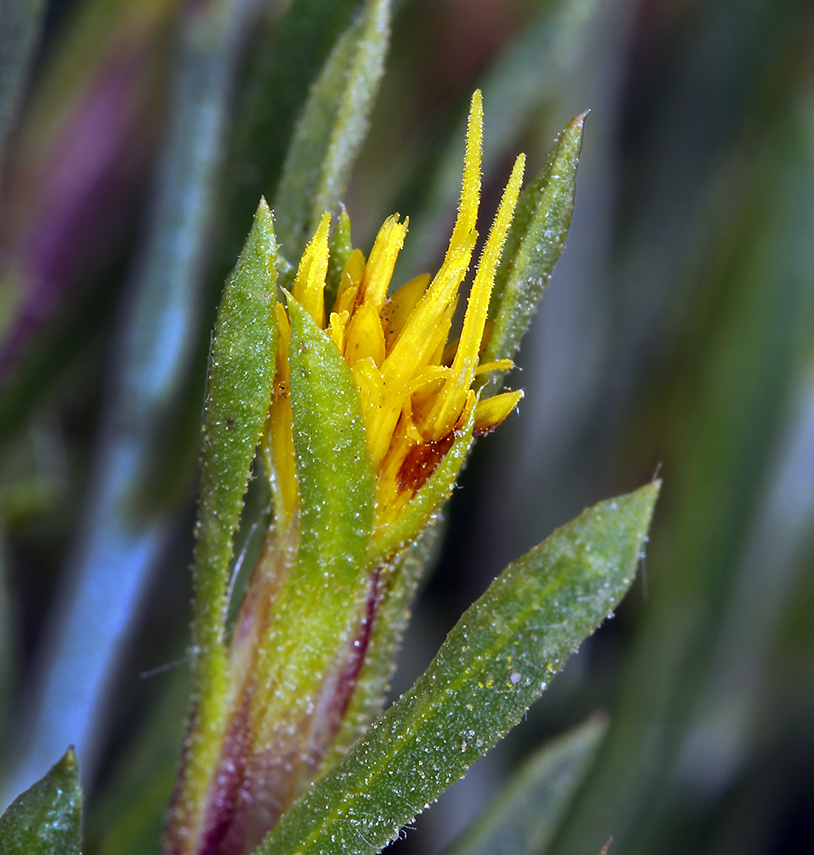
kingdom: Plantae
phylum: Tracheophyta
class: Magnoliopsida
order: Asterales
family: Asteraceae
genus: Ericameria
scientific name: Ericameria parryi
